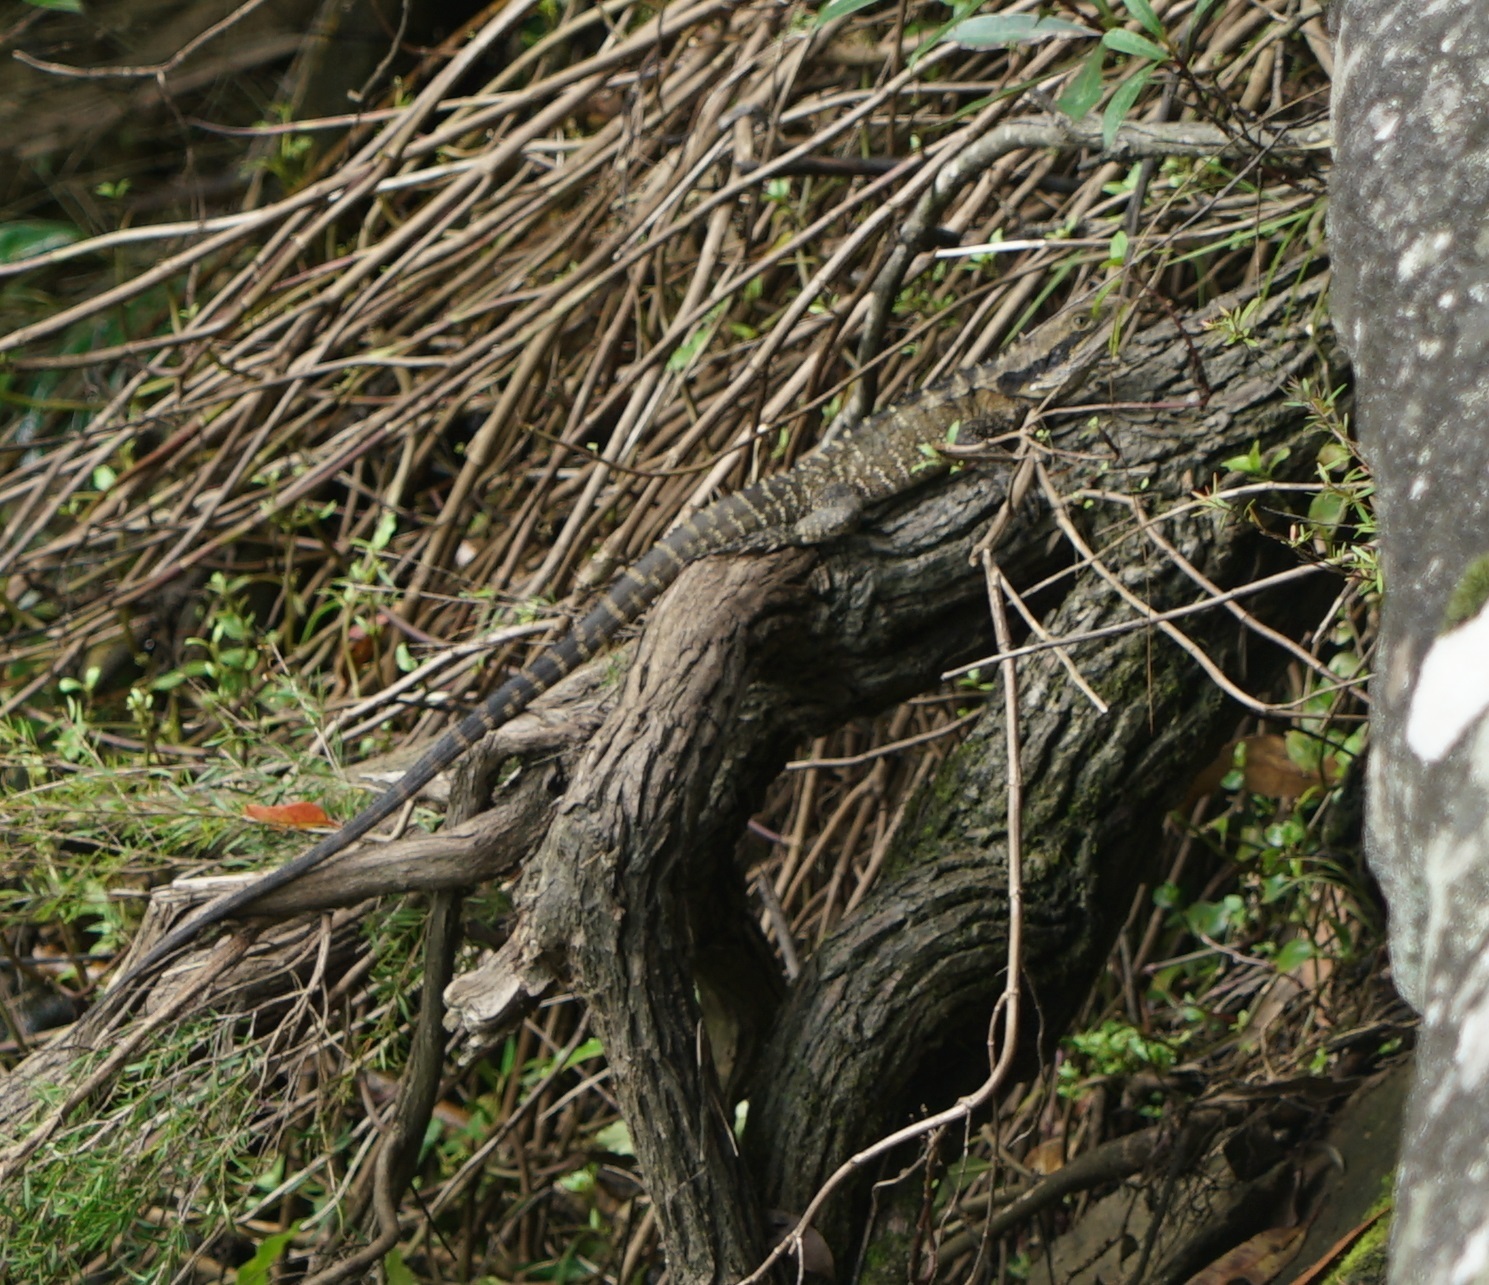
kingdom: Animalia
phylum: Chordata
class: Squamata
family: Agamidae
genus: Intellagama
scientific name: Intellagama lesueurii
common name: Eastern water dragon
